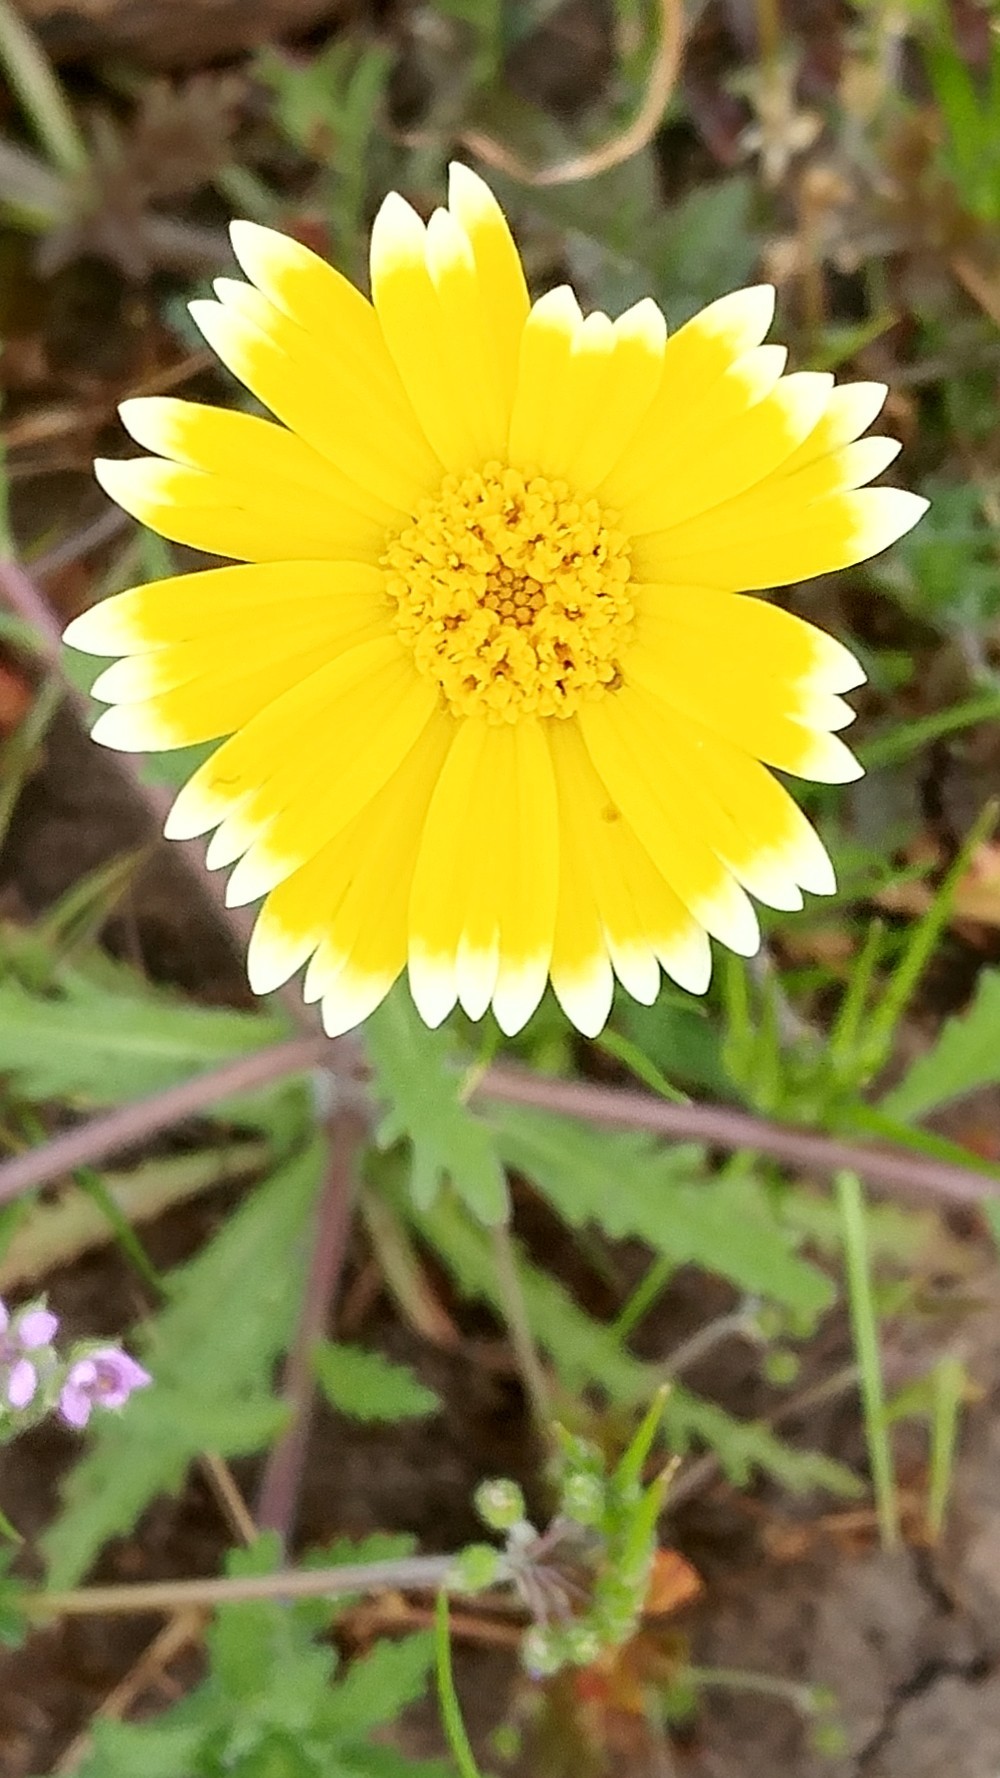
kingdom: Plantae
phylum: Tracheophyta
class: Magnoliopsida
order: Asterales
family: Asteraceae
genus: Layia
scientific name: Layia platyglossa
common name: Tidy-tips
